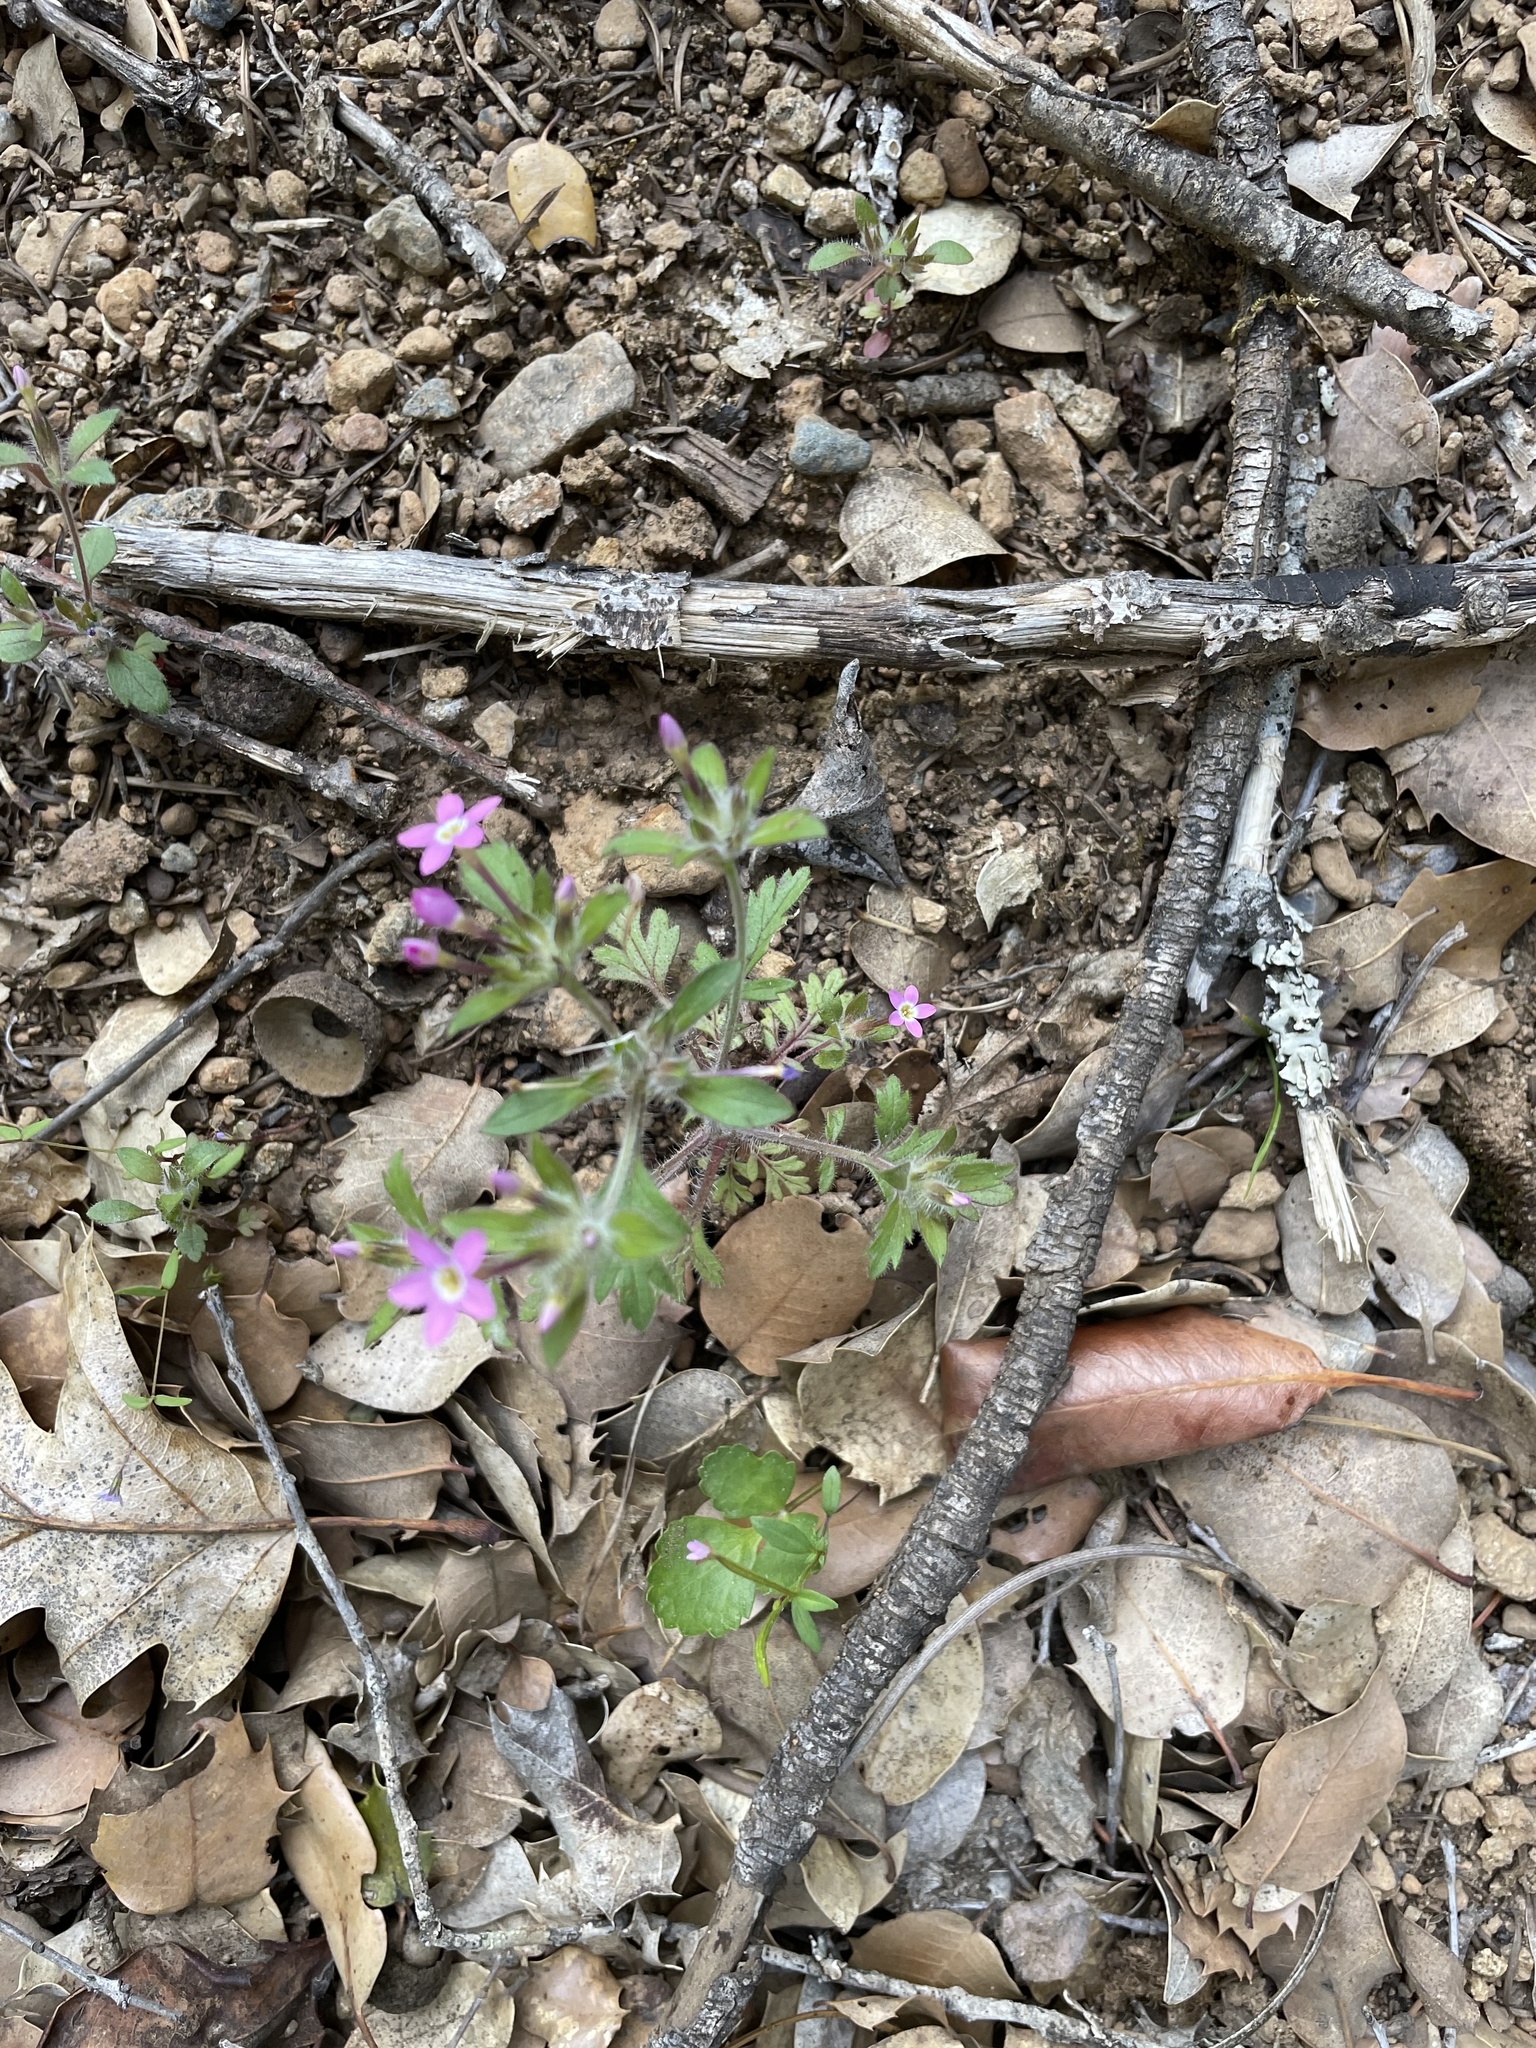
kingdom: Plantae
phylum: Tracheophyta
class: Magnoliopsida
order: Ericales
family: Polemoniaceae
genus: Collomia
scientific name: Collomia heterophylla
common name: Variable-leaved collomia
